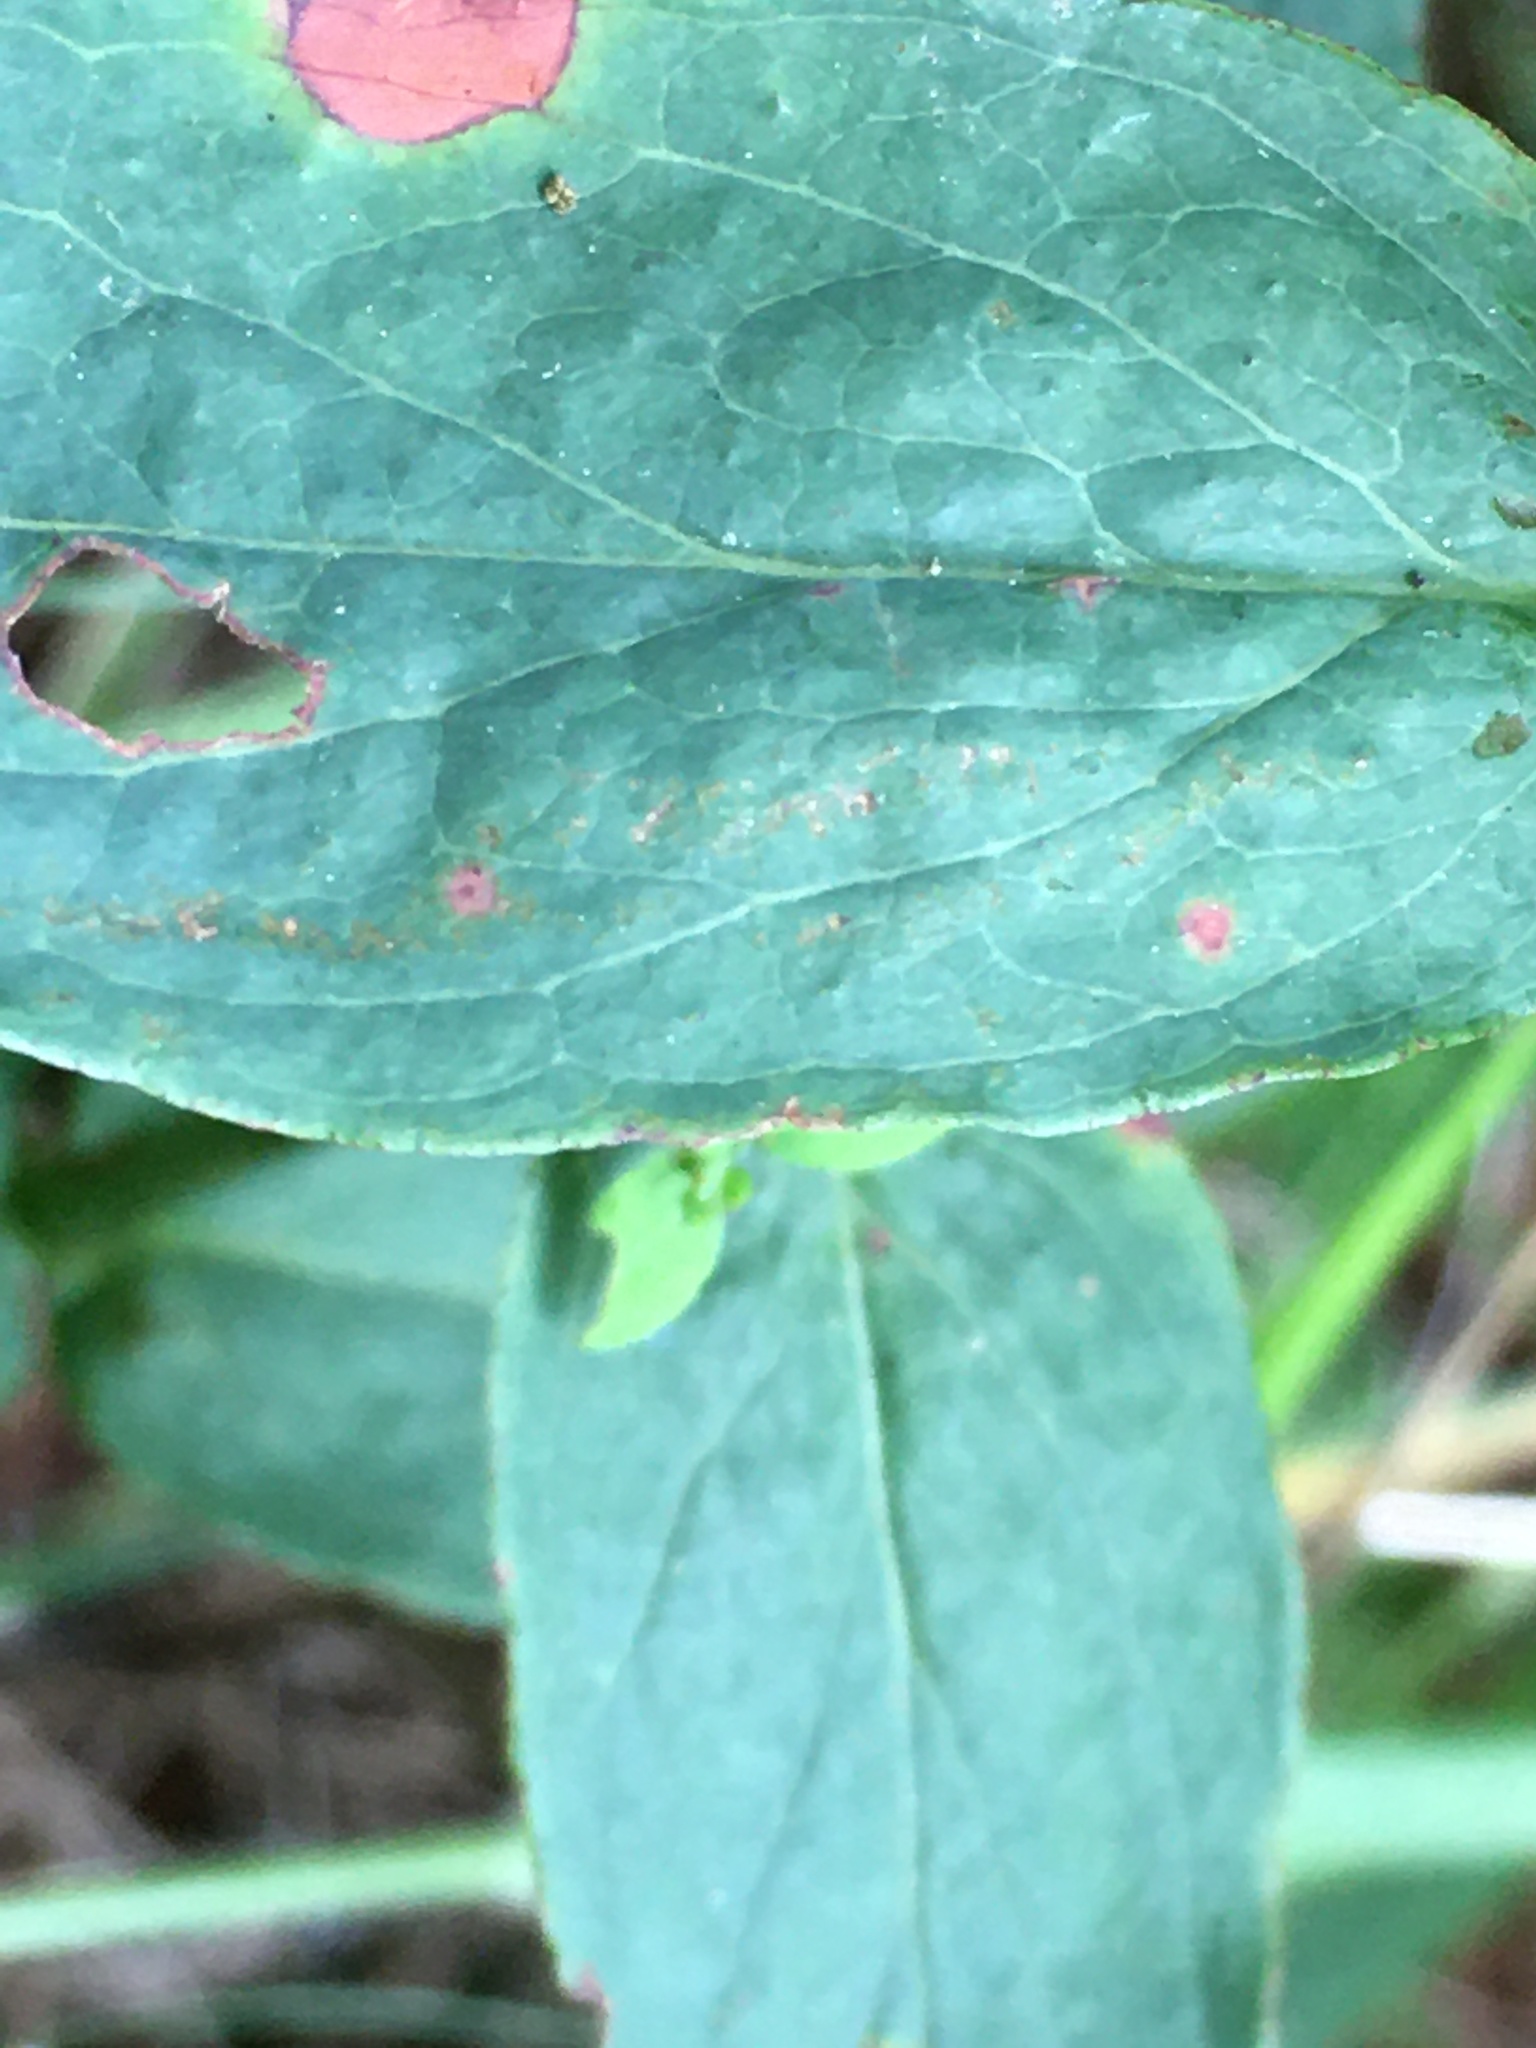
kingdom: Plantae
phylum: Tracheophyta
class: Magnoliopsida
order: Malpighiales
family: Hypericaceae
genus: Hypericum
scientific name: Hypericum punctatum
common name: Spotted st. john's-wort
